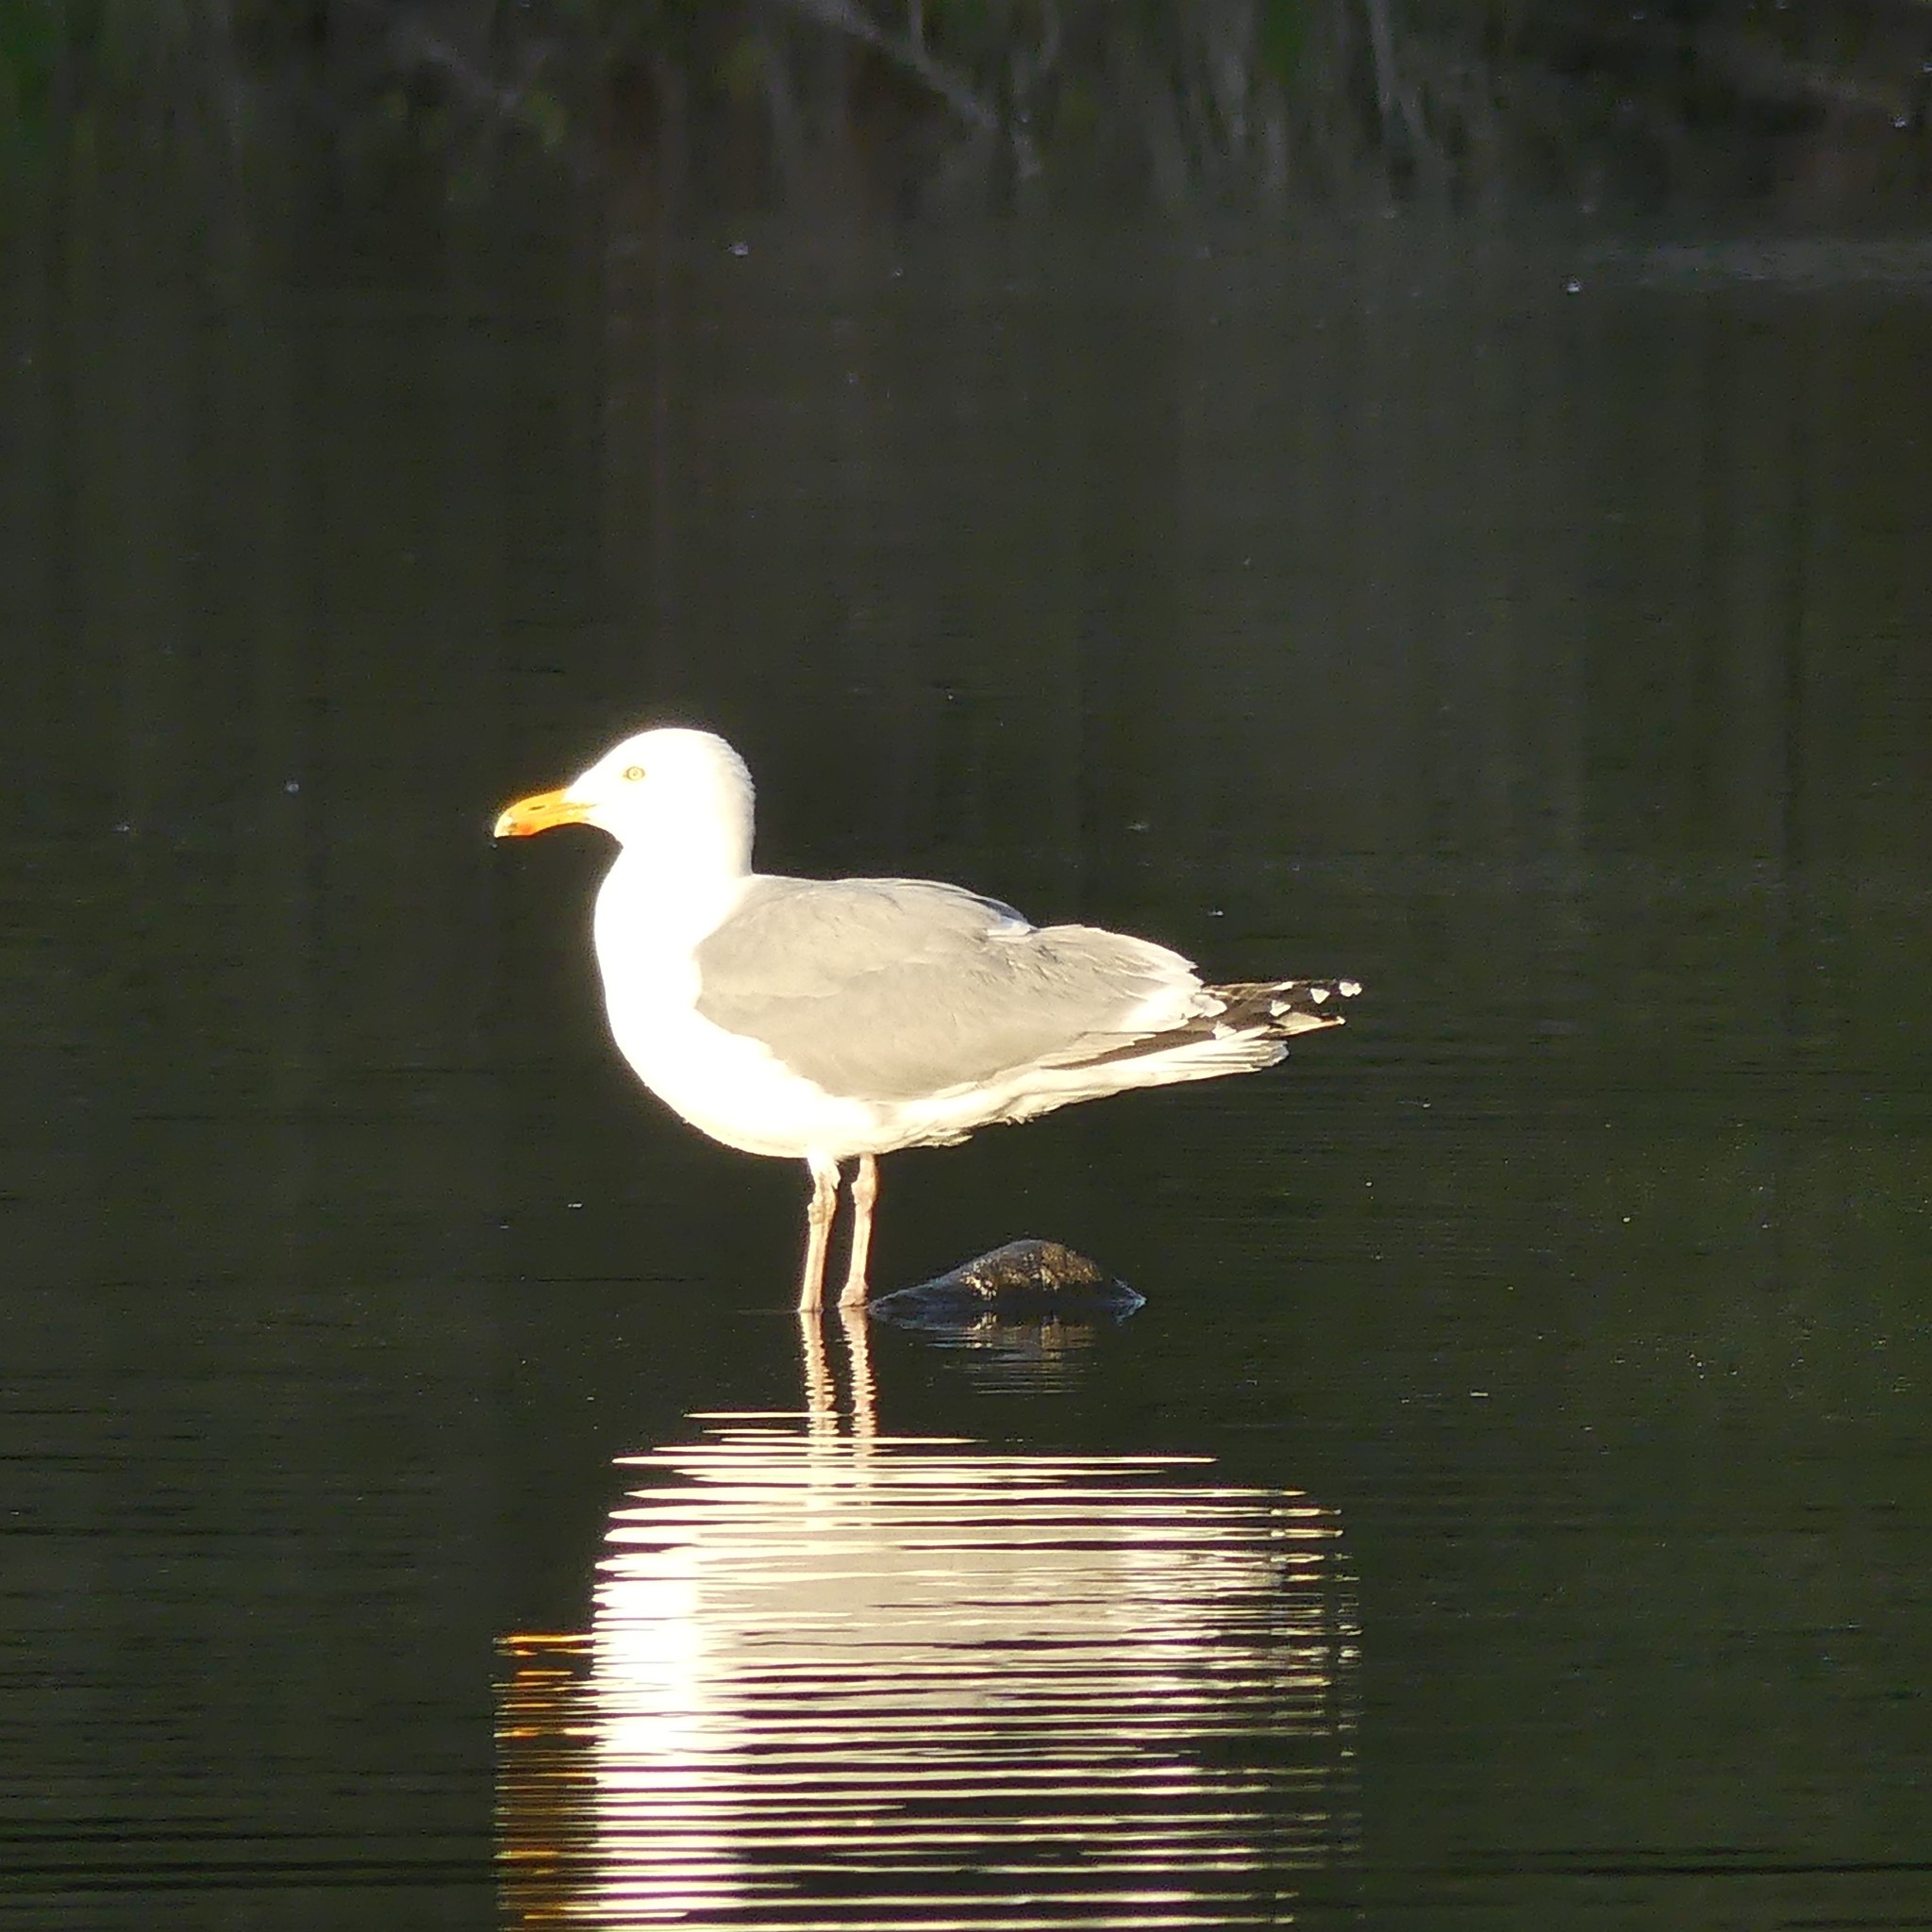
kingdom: Animalia
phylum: Chordata
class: Aves
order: Charadriiformes
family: Laridae
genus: Larus
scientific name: Larus argentatus
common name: Herring gull
